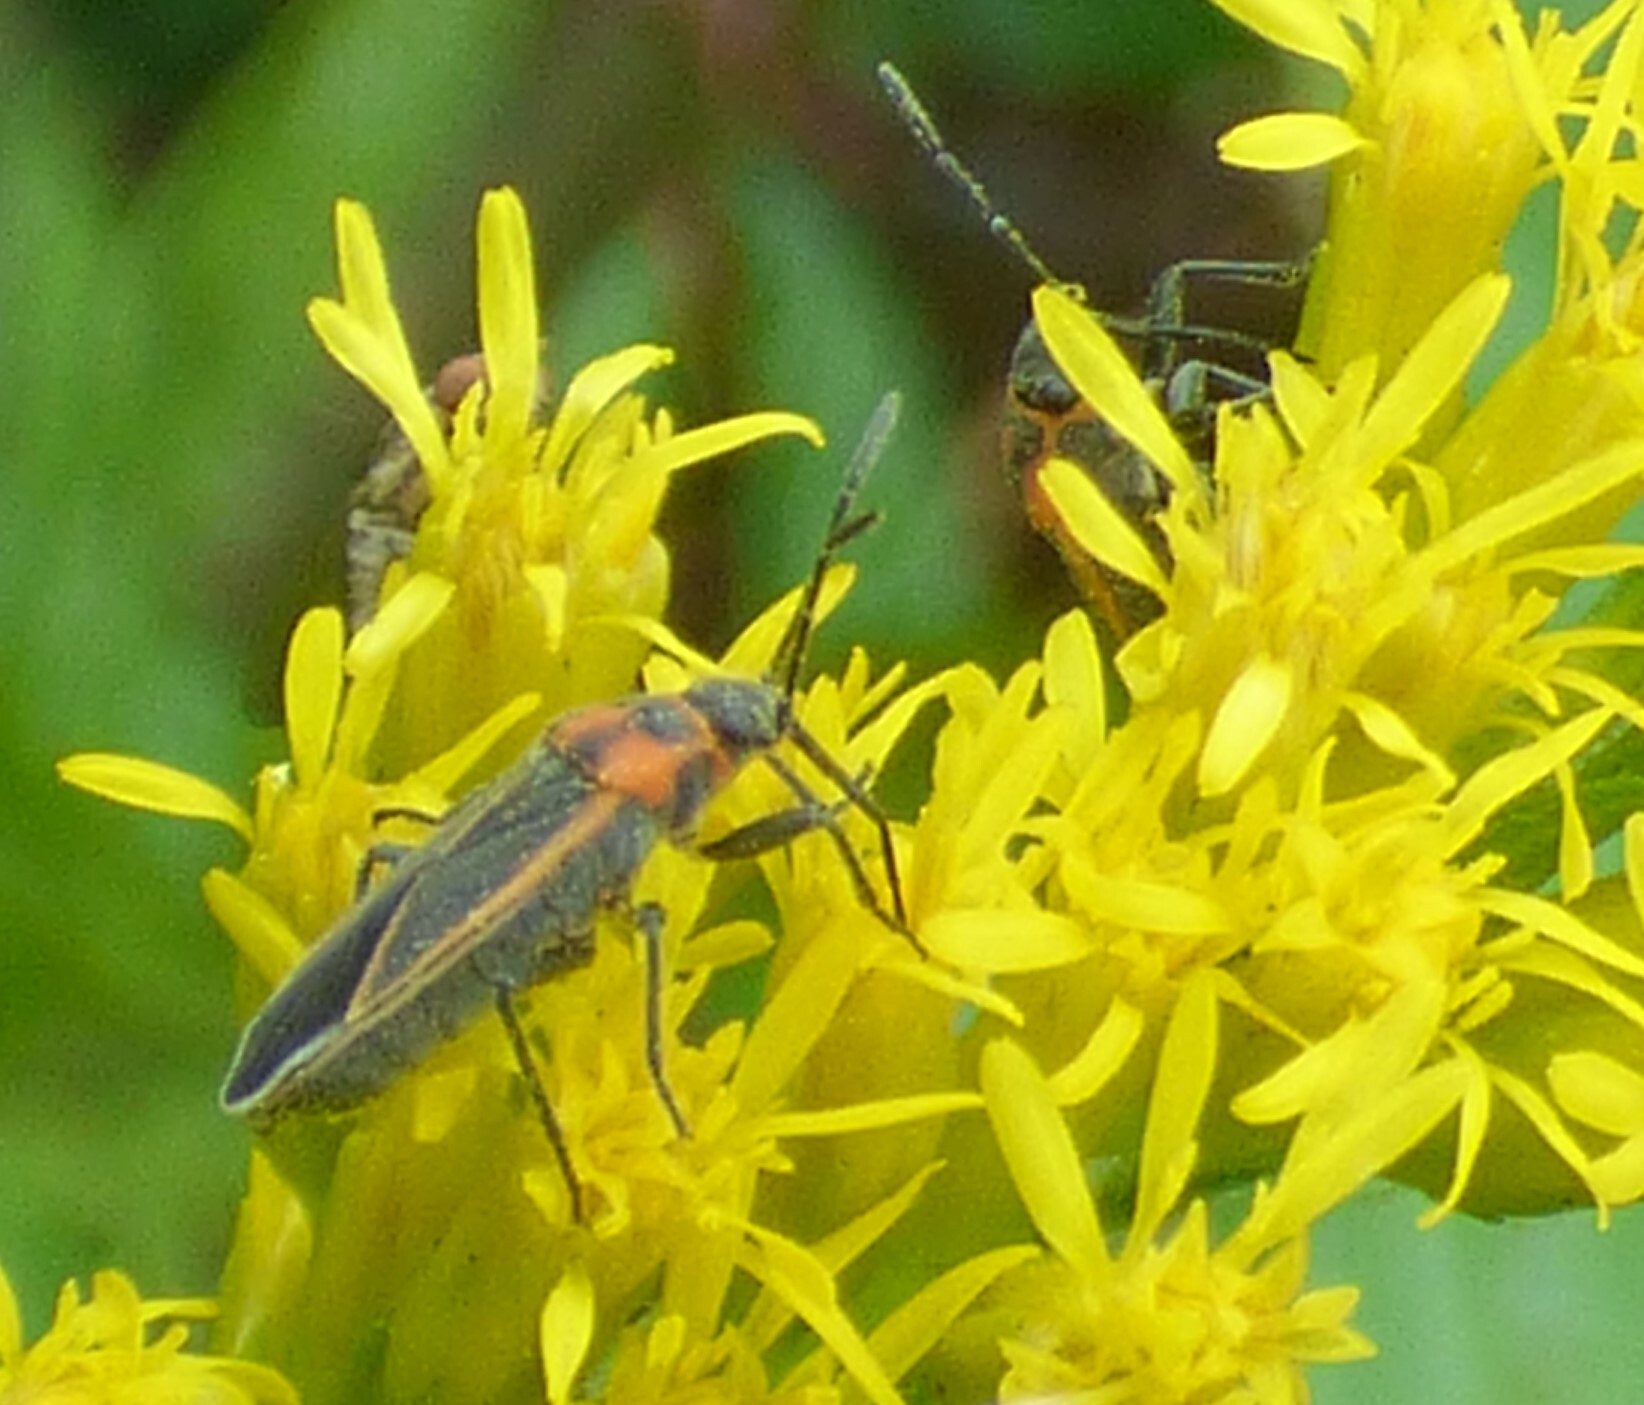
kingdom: Animalia
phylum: Arthropoda
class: Insecta
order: Hemiptera
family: Lygaeidae
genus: Ochrimnus
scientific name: Ochrimnus lineoloides
